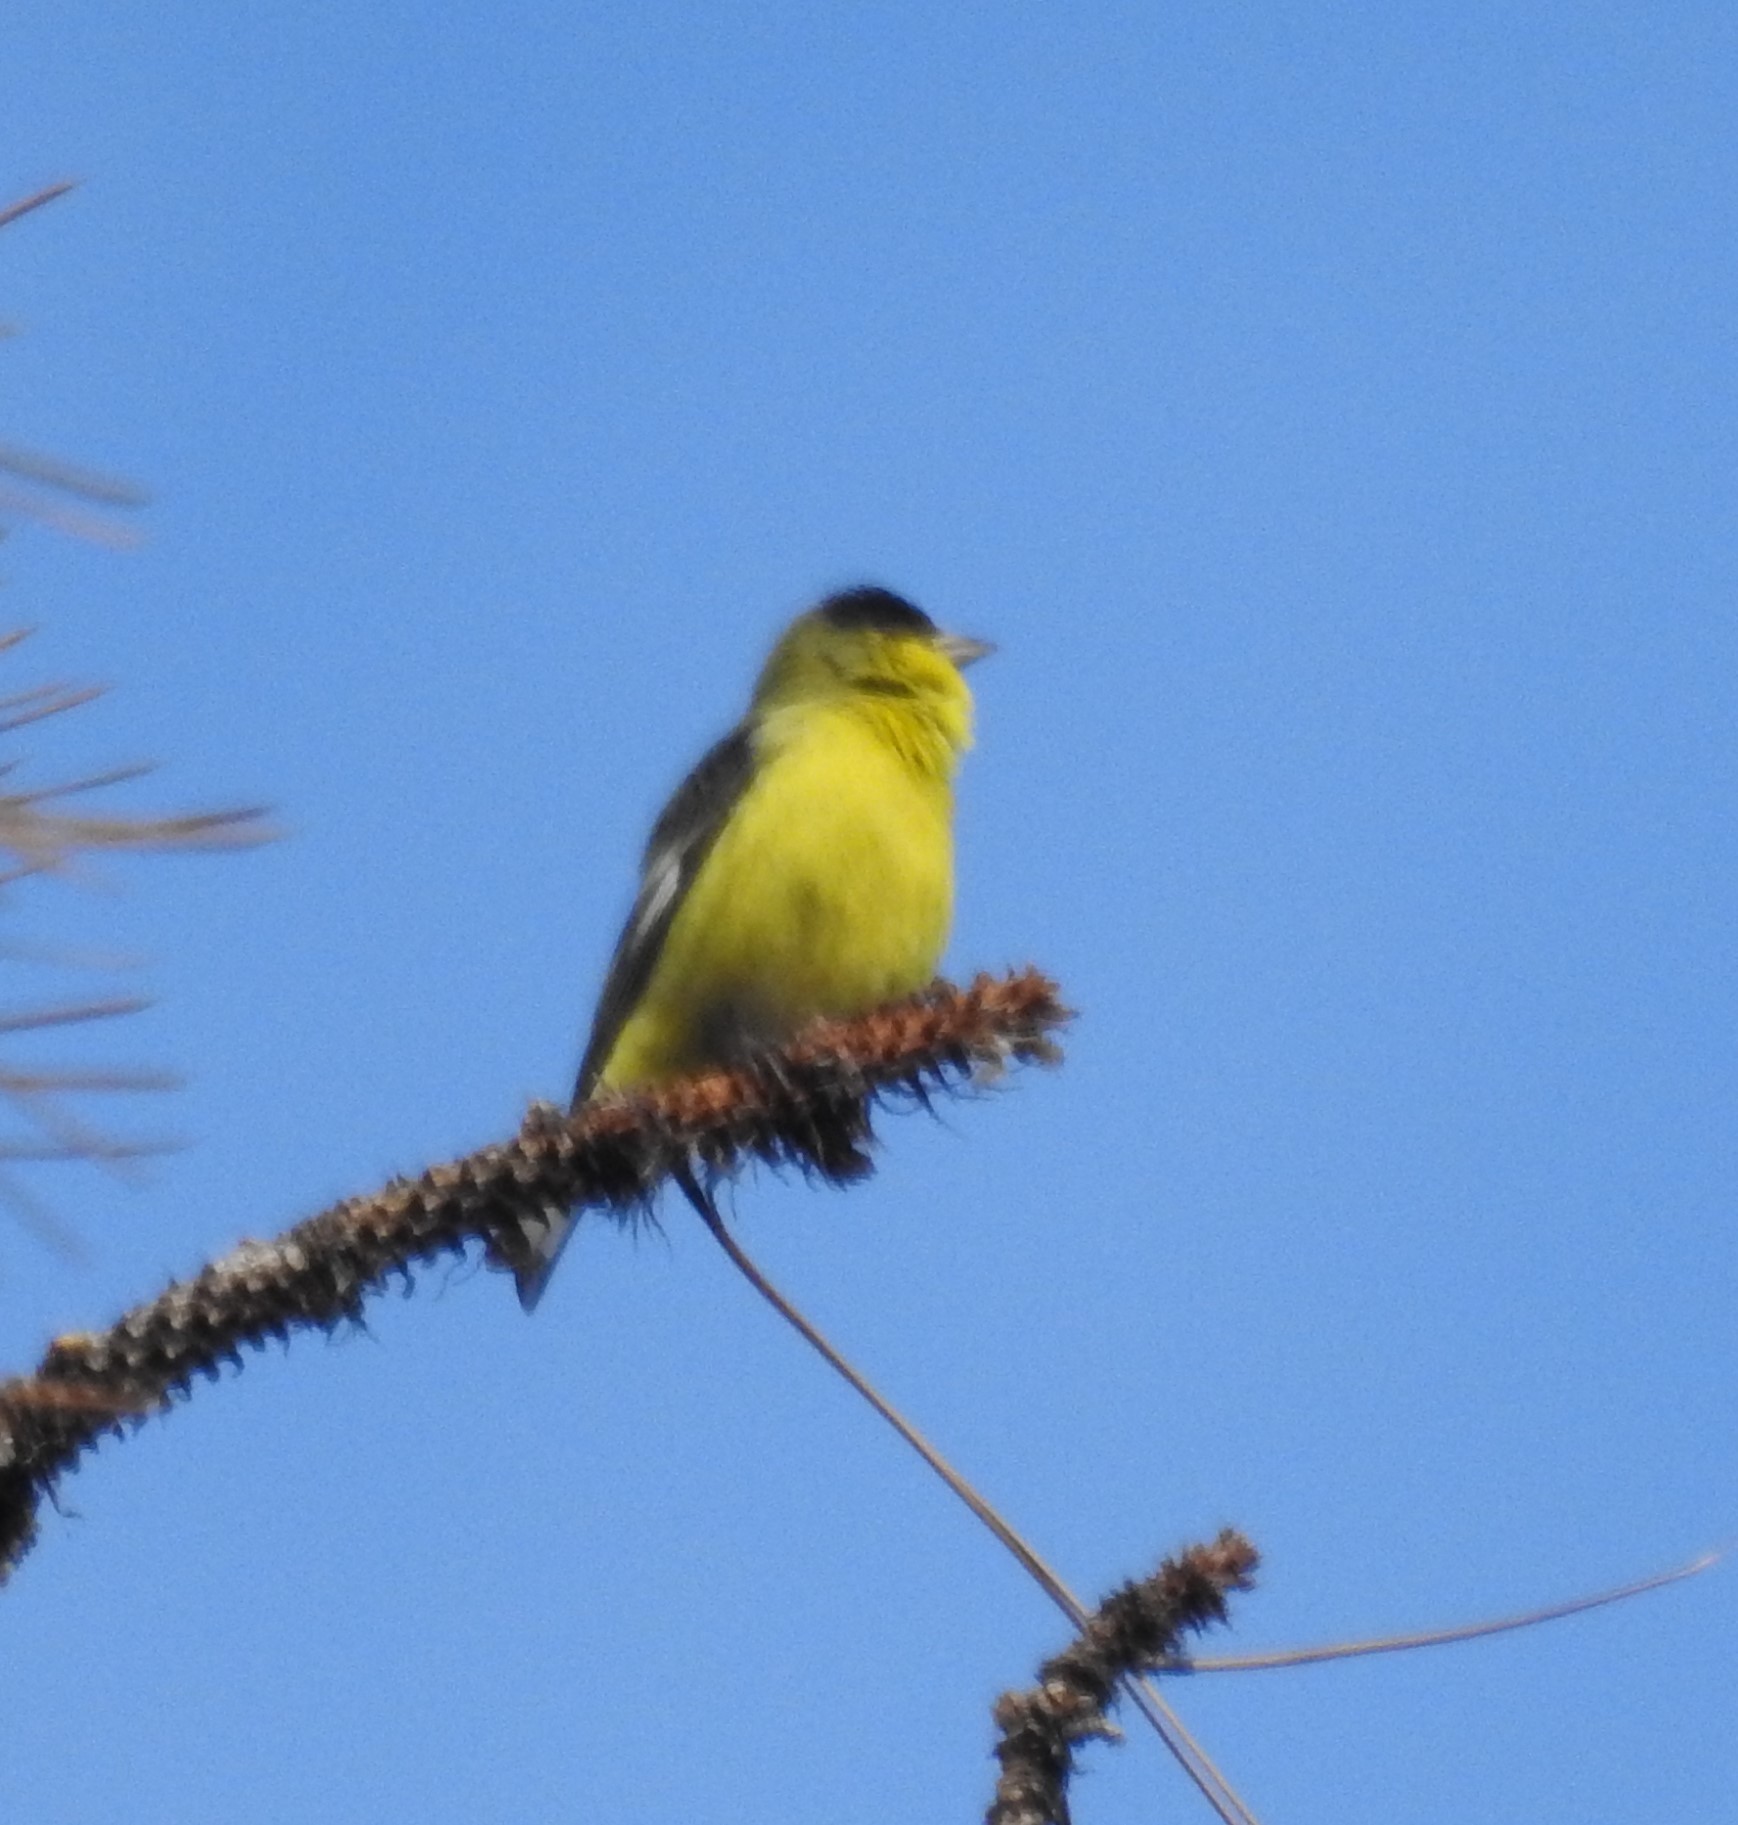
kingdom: Animalia
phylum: Chordata
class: Aves
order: Passeriformes
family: Fringillidae
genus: Spinus
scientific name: Spinus psaltria
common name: Lesser goldfinch
